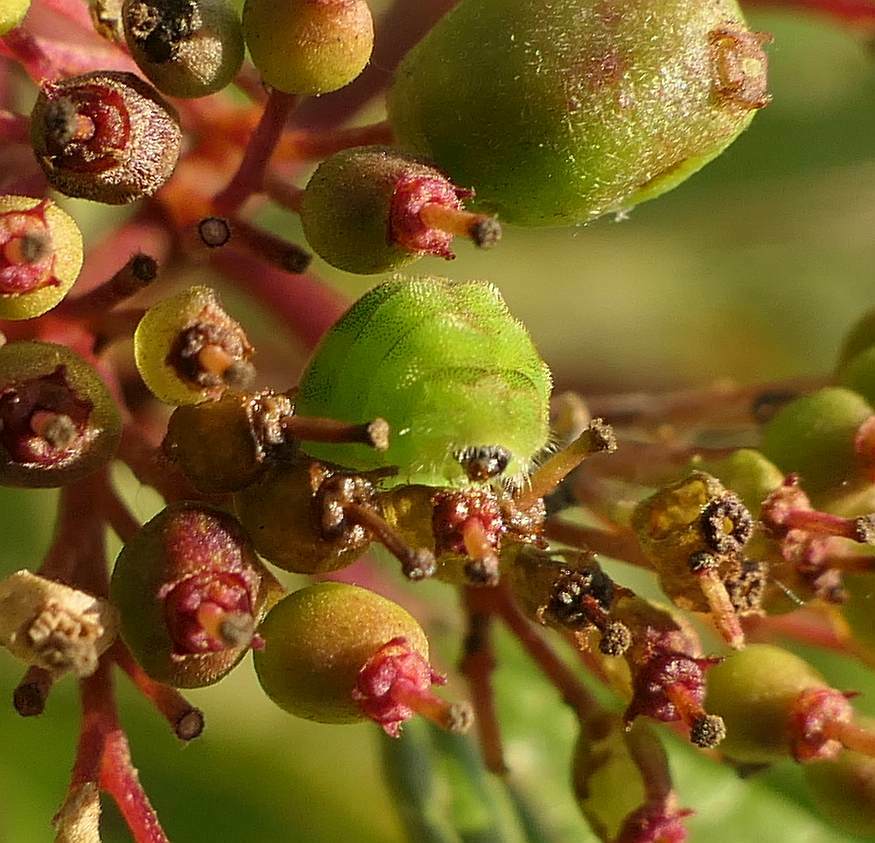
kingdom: Animalia
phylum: Arthropoda
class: Insecta
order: Lepidoptera
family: Lycaenidae
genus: Celastrina
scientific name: Celastrina lucia
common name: Lucia azure
